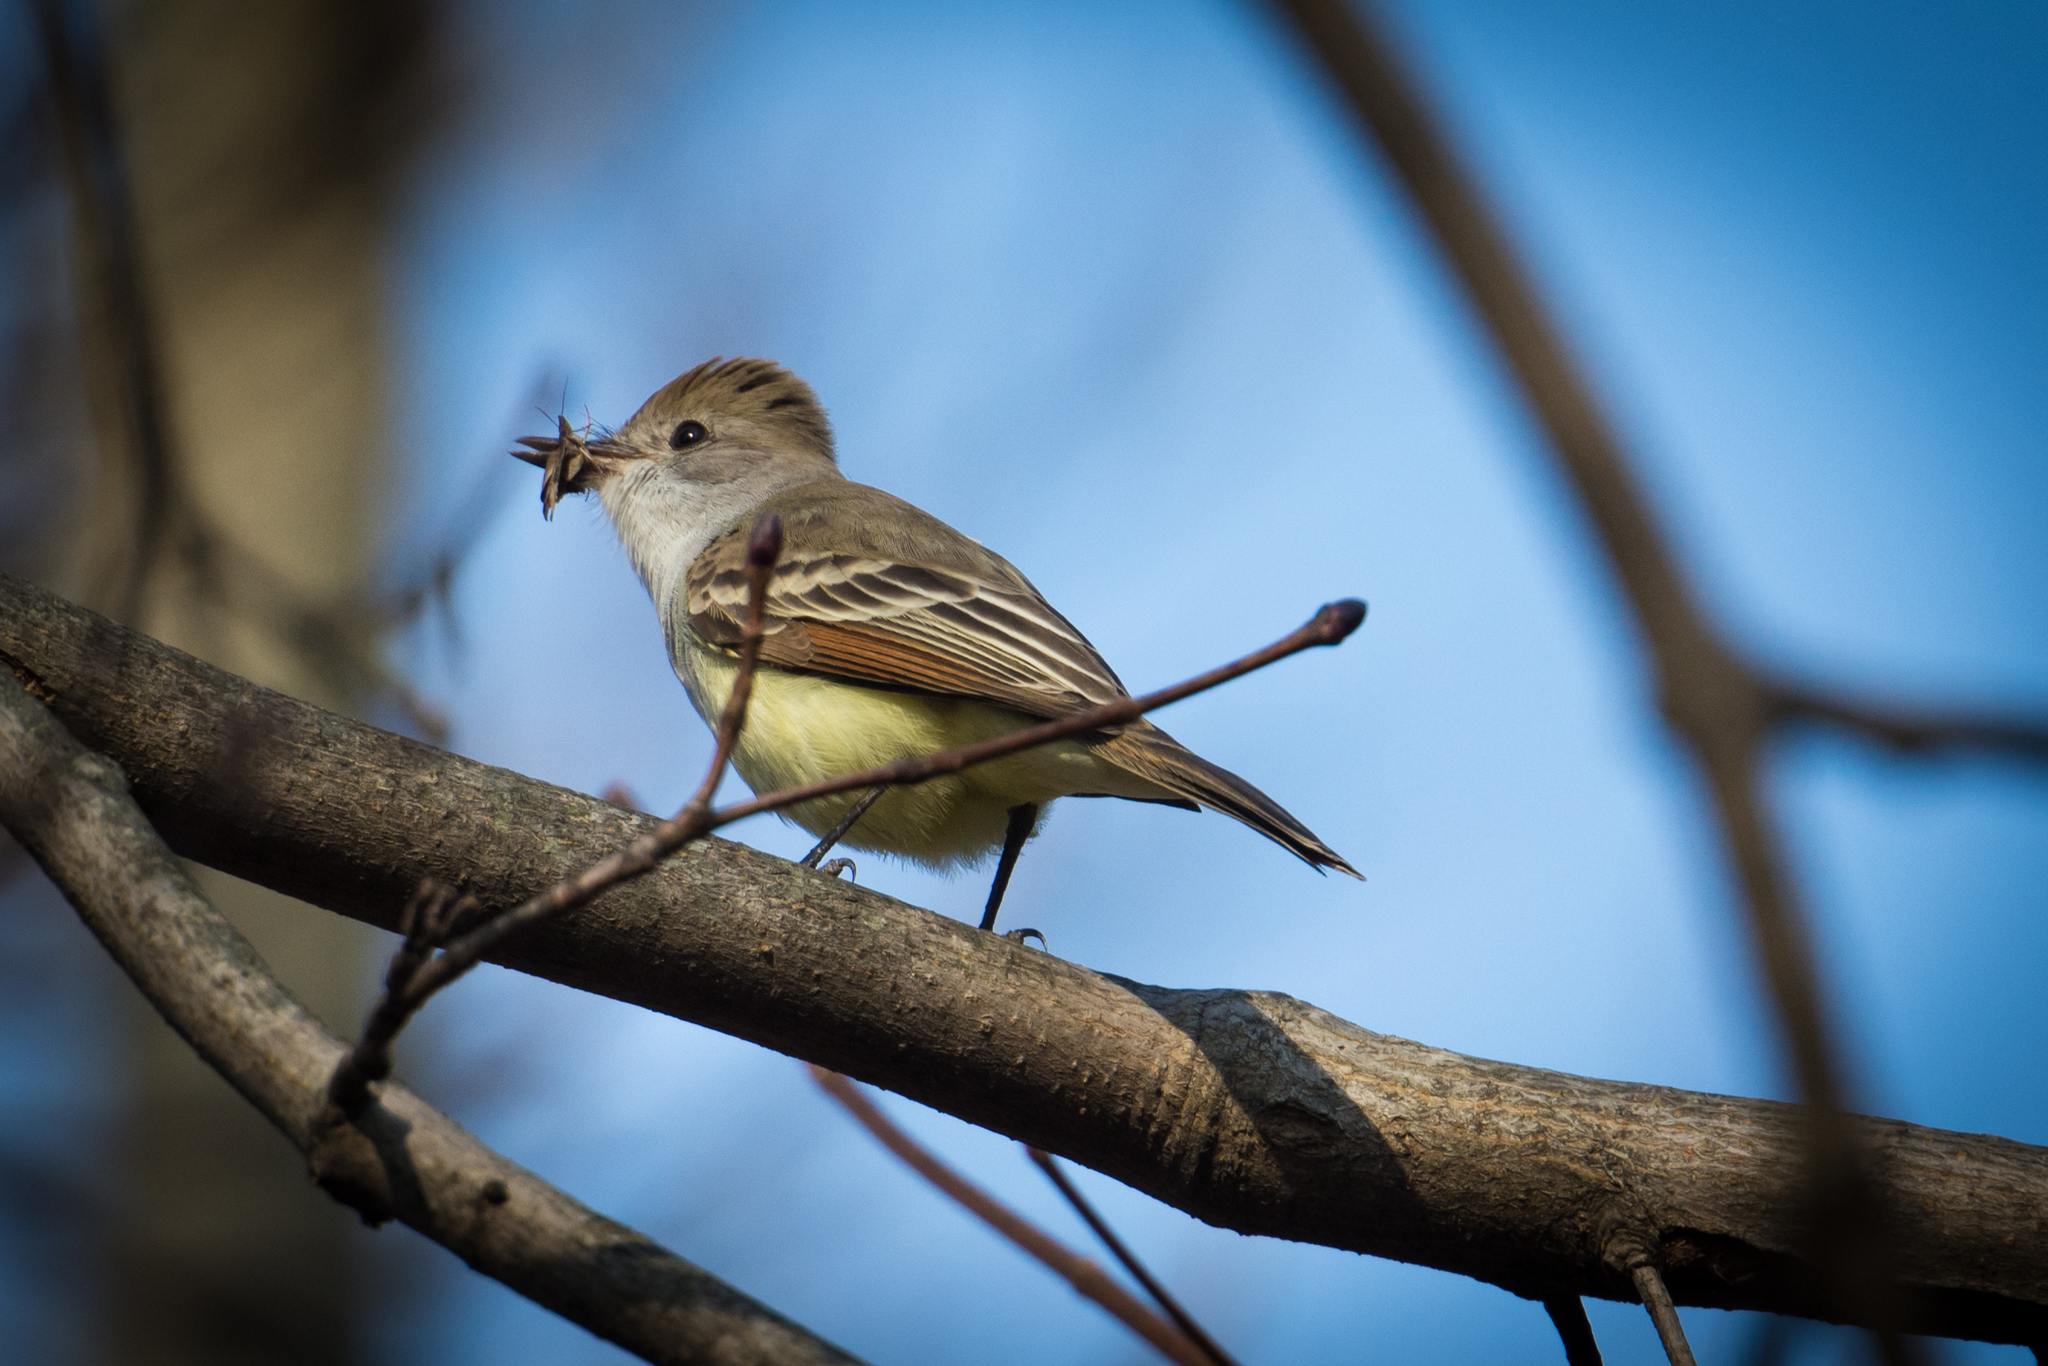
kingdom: Animalia
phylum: Chordata
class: Aves
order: Passeriformes
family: Tyrannidae
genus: Myiarchus
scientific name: Myiarchus cinerascens
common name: Ash-throated flycatcher
